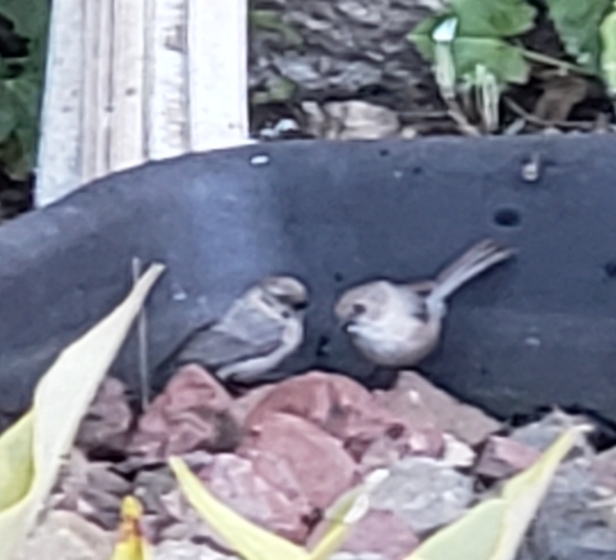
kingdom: Animalia
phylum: Chordata
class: Aves
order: Passeriformes
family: Aegithalidae
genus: Psaltriparus
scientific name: Psaltriparus minimus
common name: American bushtit
